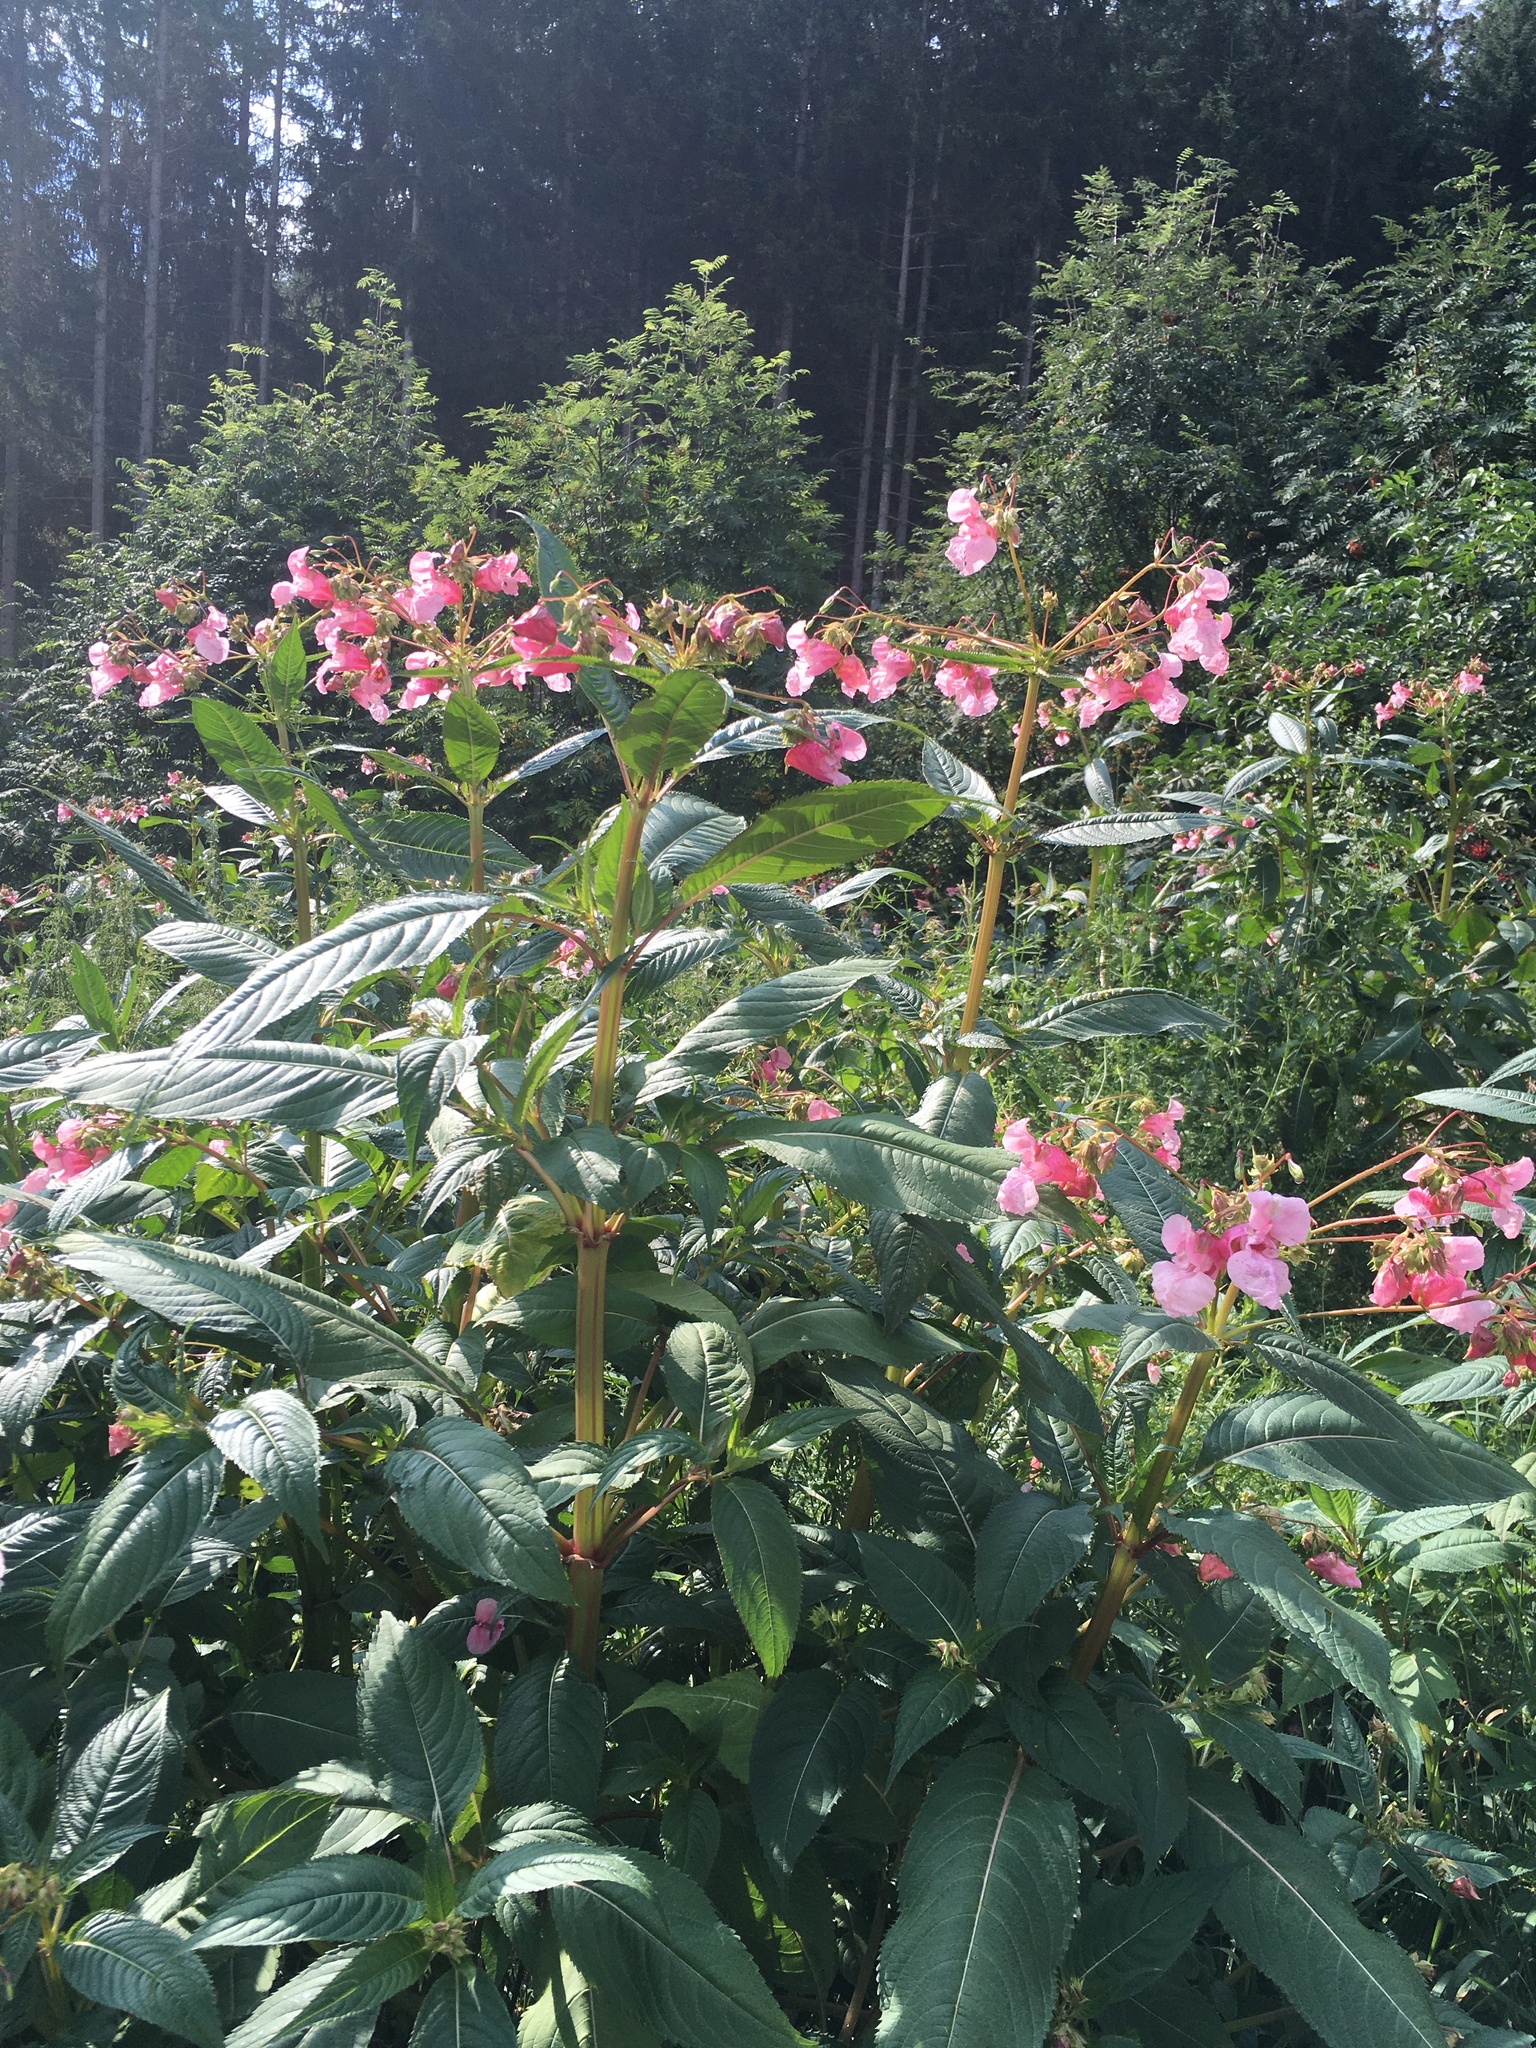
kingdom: Plantae
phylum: Tracheophyta
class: Magnoliopsida
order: Ericales
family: Balsaminaceae
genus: Impatiens
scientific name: Impatiens glandulifera
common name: Himalayan balsam
